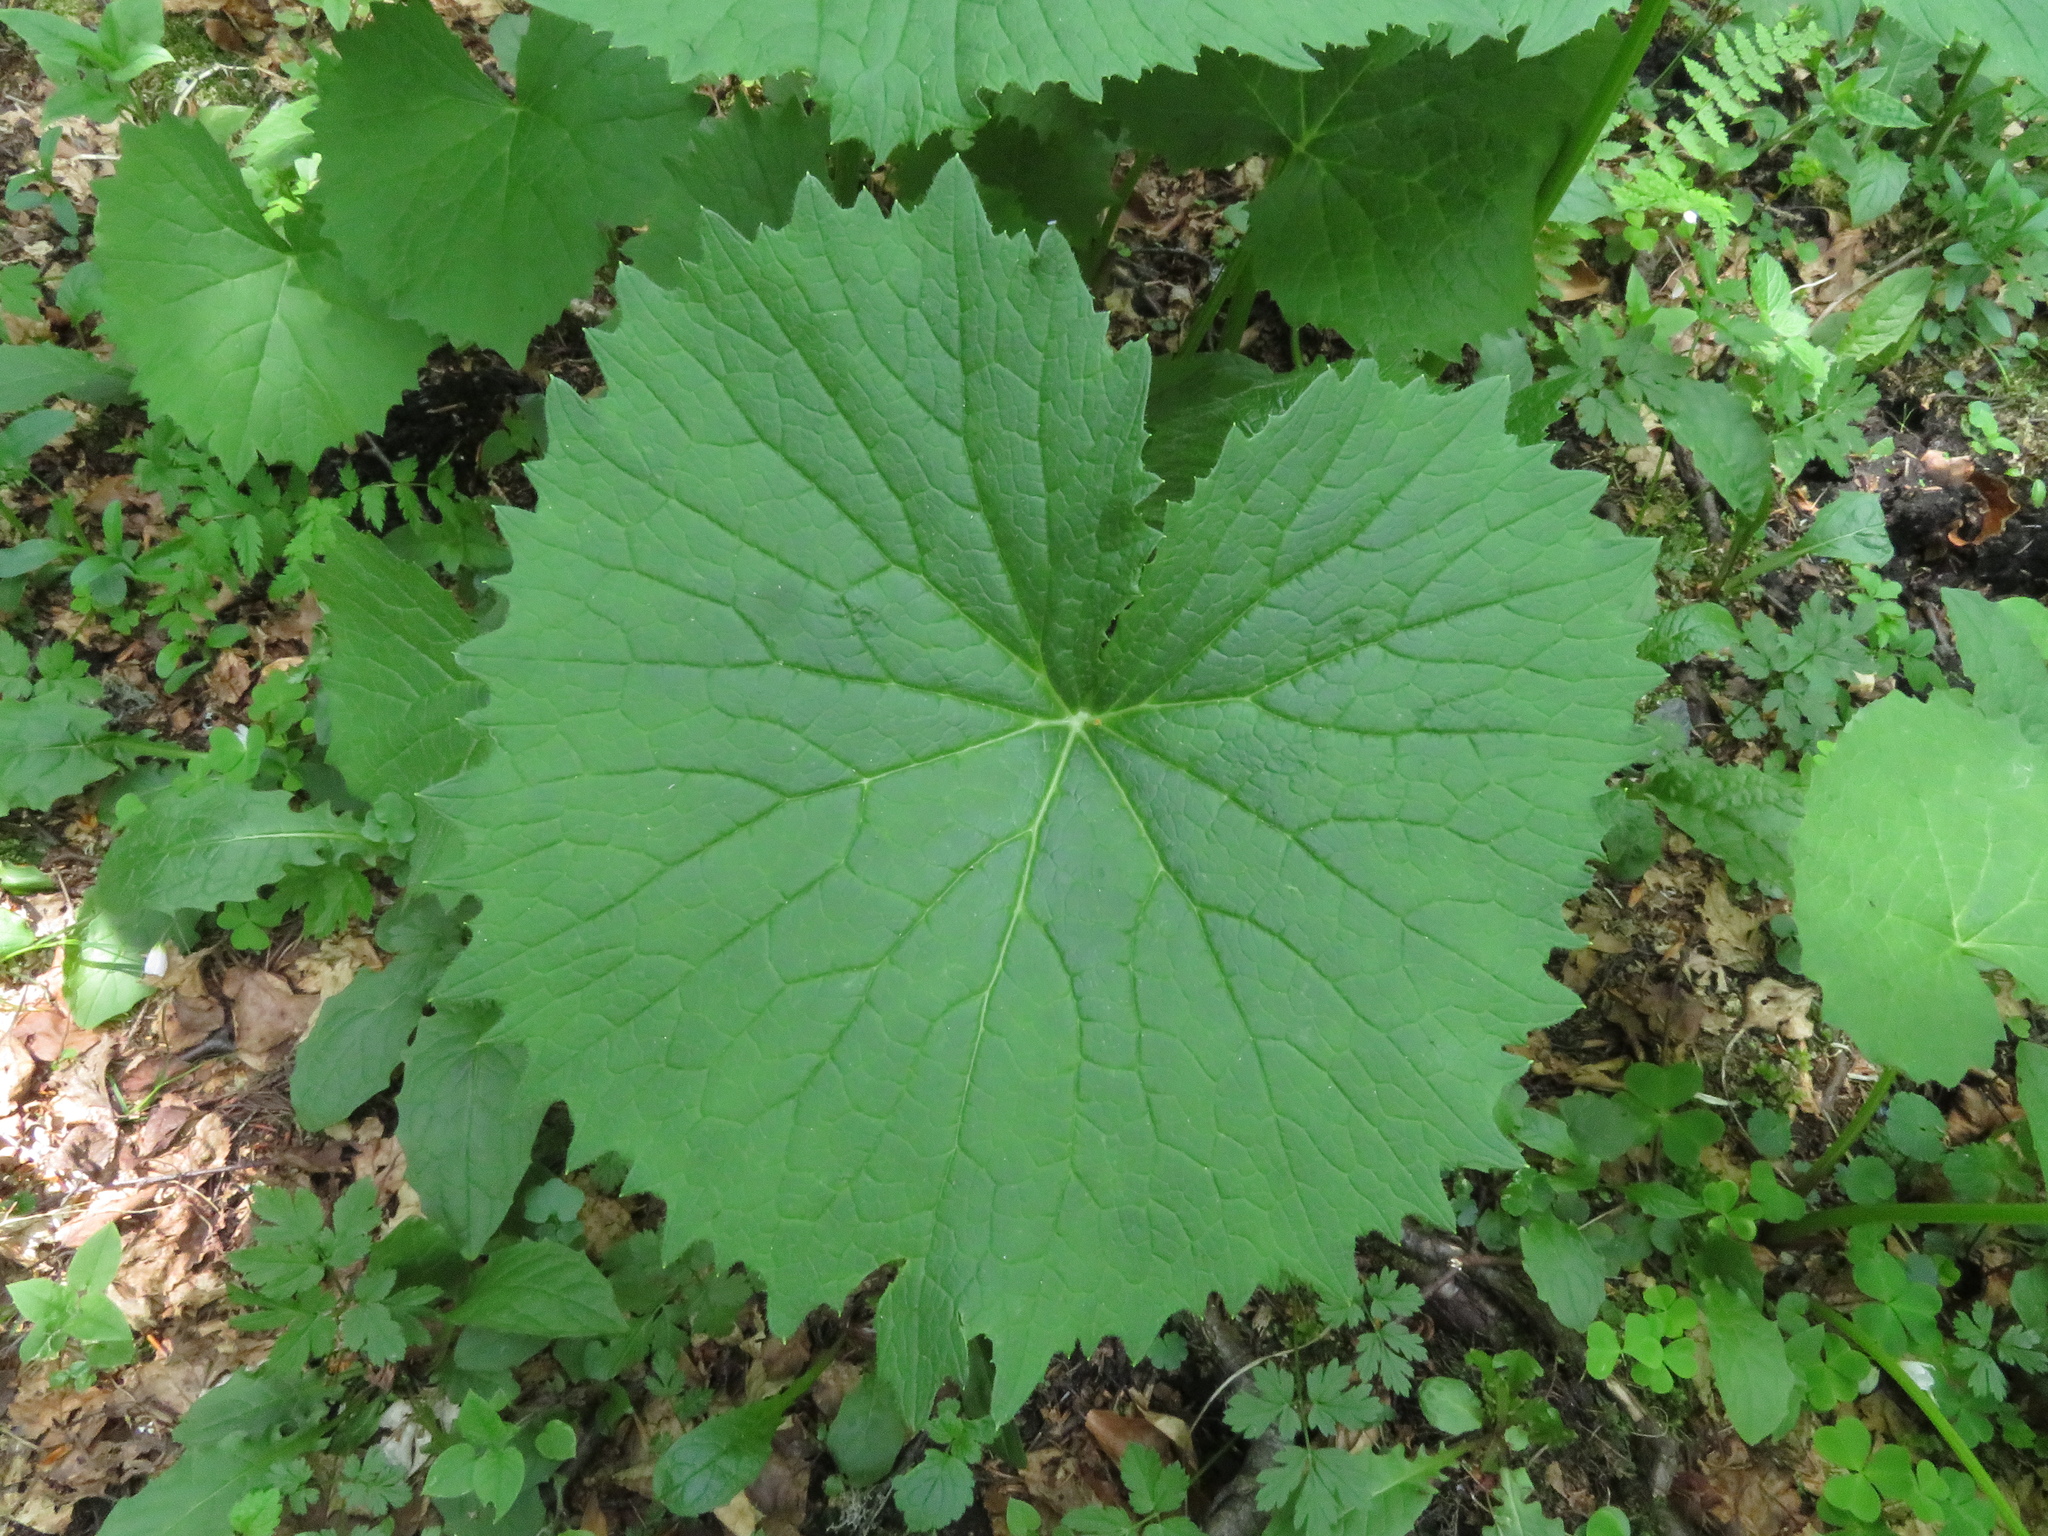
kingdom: Plantae
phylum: Tracheophyta
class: Magnoliopsida
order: Asterales
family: Asteraceae
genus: Adenostyles
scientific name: Adenostyles alliariae
